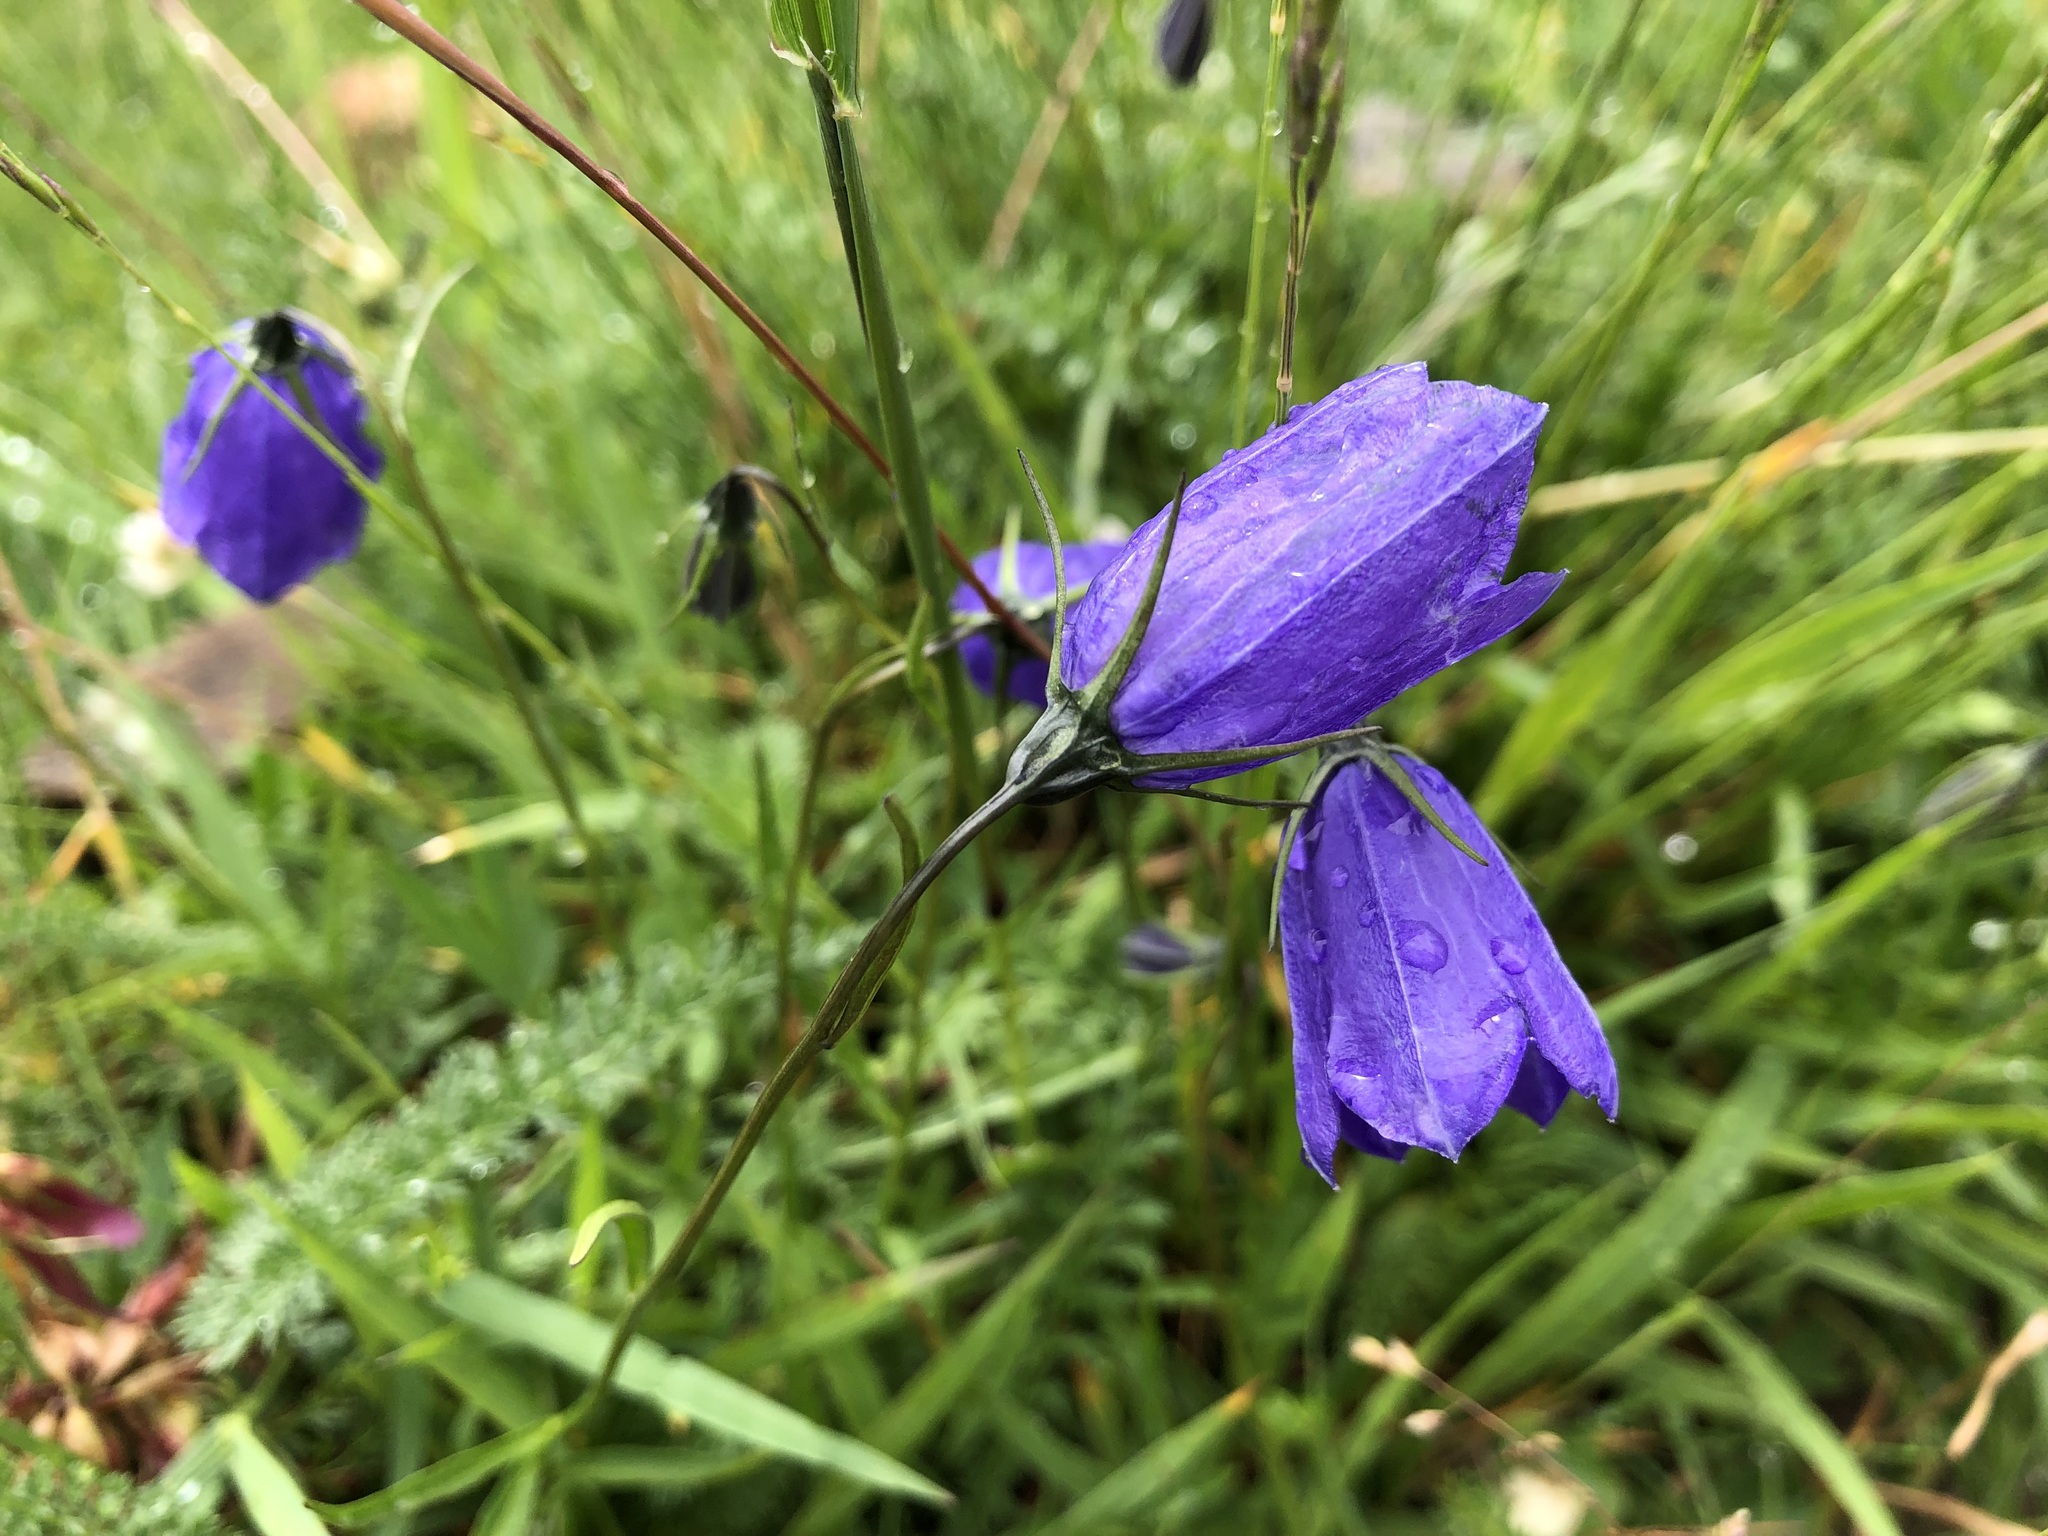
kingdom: Plantae
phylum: Tracheophyta
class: Magnoliopsida
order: Asterales
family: Campanulaceae
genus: Campanula
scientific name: Campanula scheuchzeri
